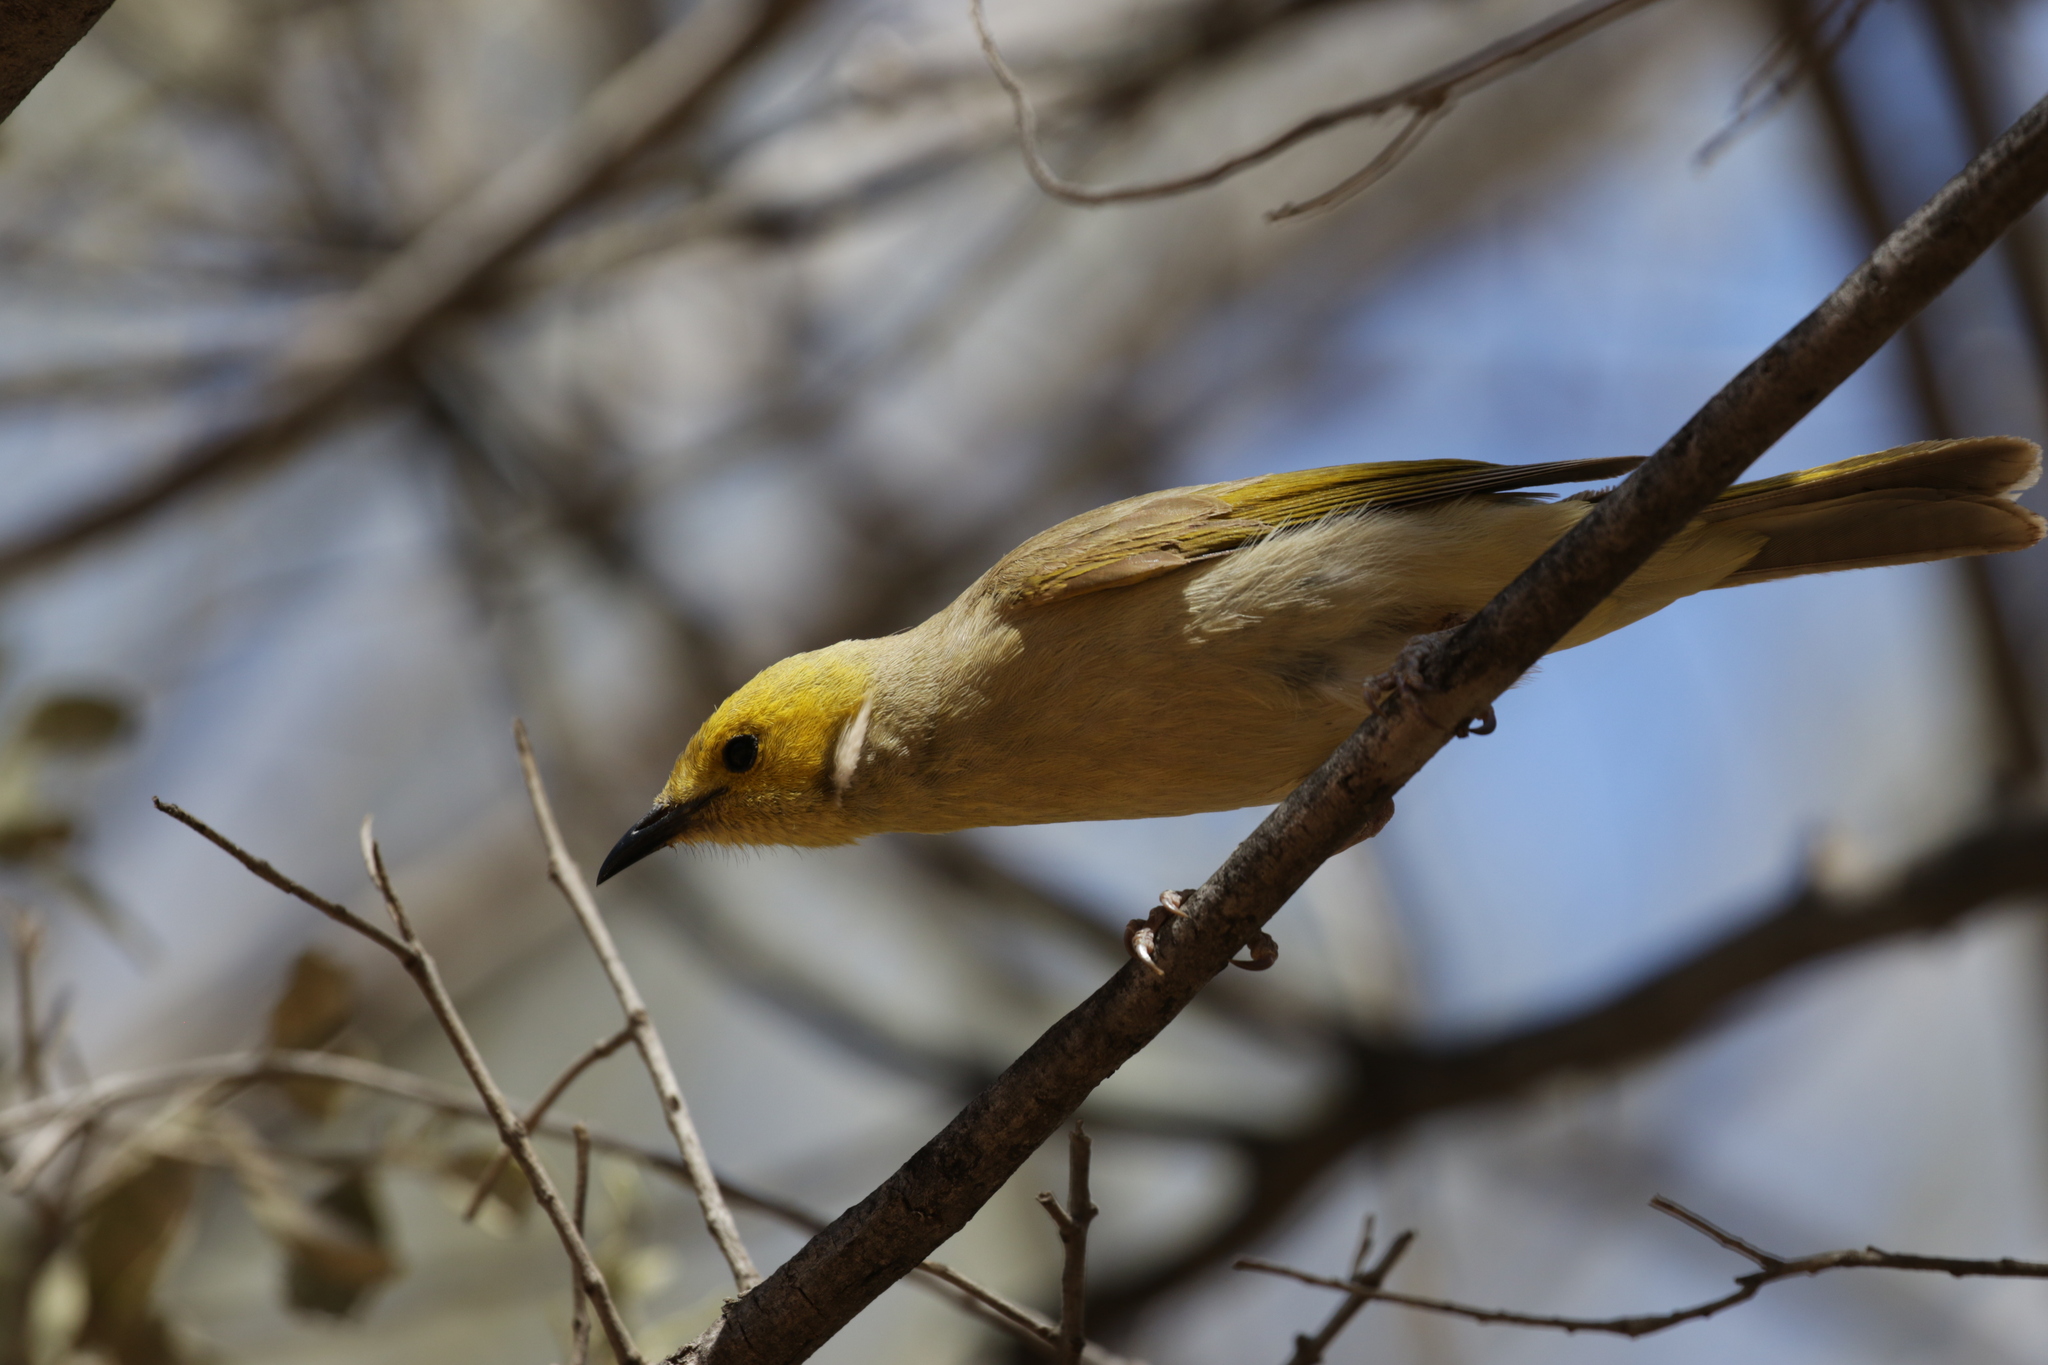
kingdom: Animalia
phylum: Chordata
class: Aves
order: Passeriformes
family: Meliphagidae
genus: Ptilotula
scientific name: Ptilotula penicillata
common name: White-plumed honeyeater
